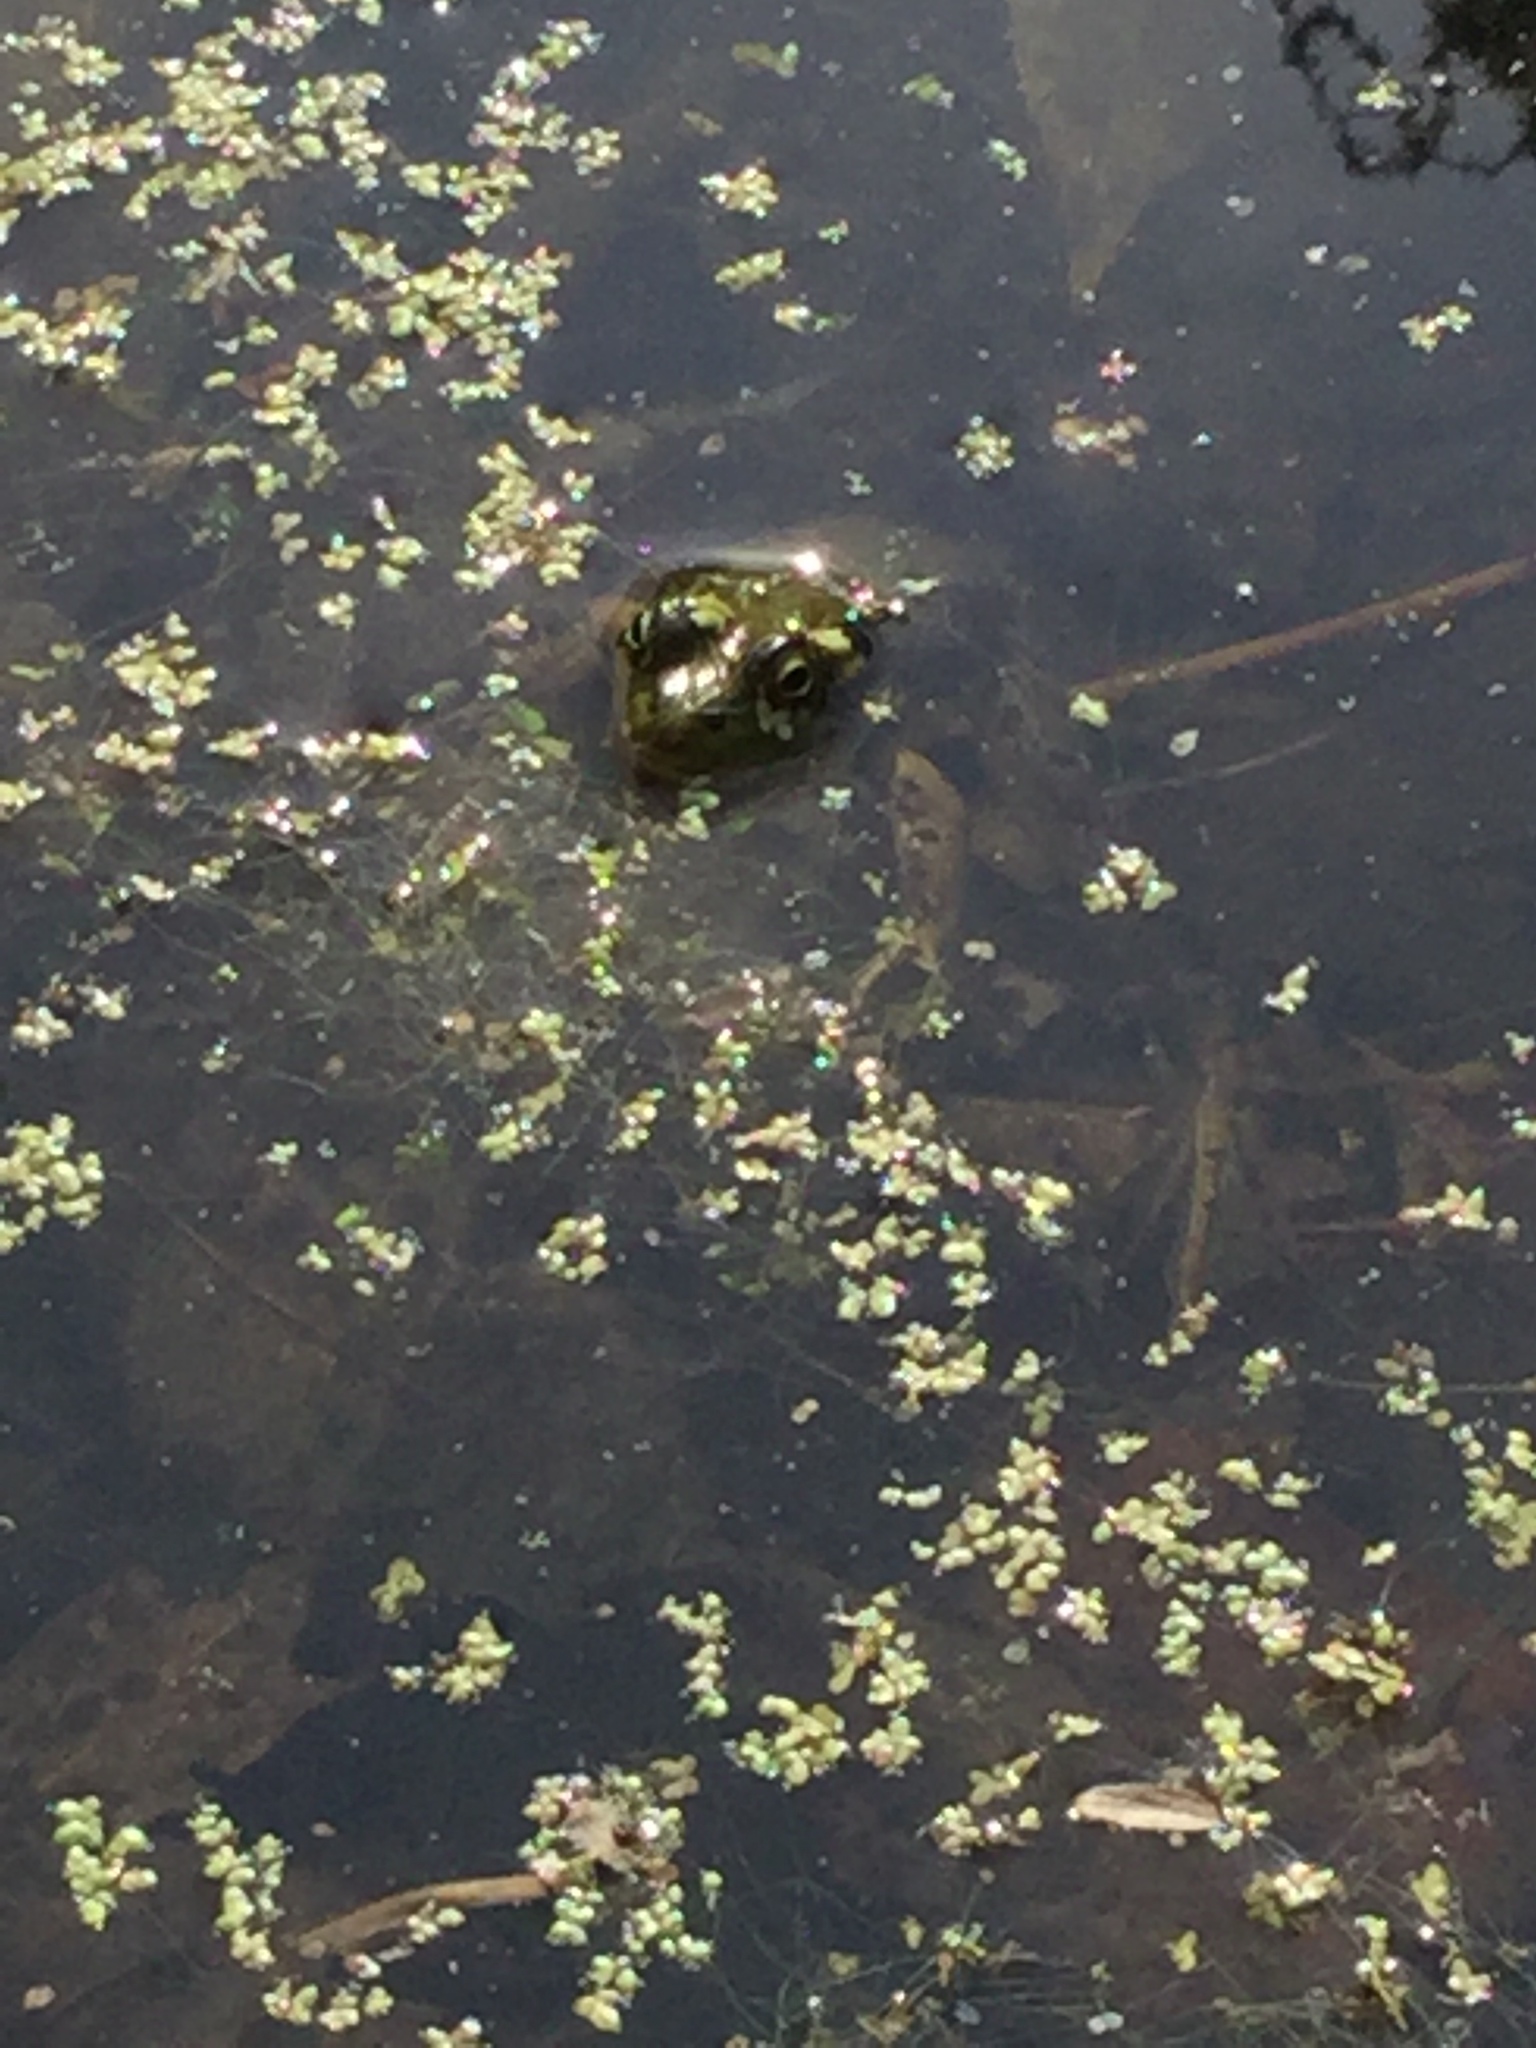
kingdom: Animalia
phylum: Chordata
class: Amphibia
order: Anura
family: Ranidae
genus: Lithobates
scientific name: Lithobates clamitans
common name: Green frog
